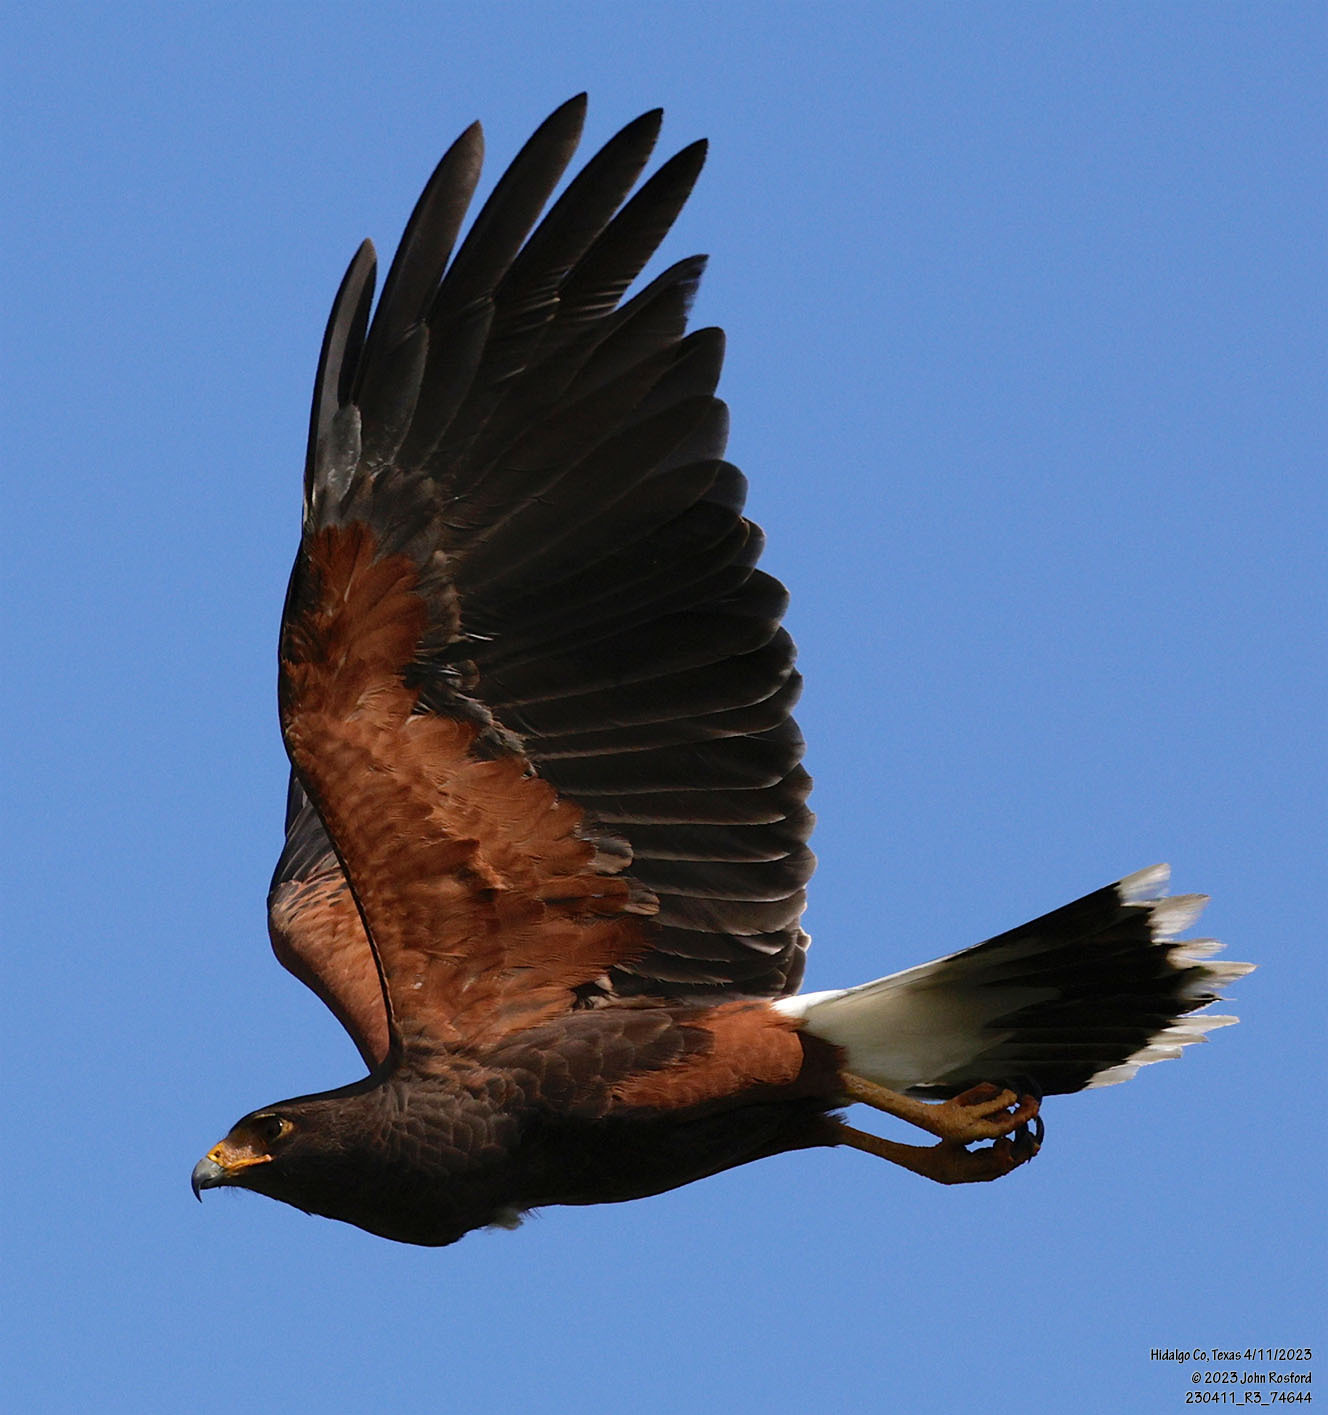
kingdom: Animalia
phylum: Chordata
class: Aves
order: Accipitriformes
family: Accipitridae
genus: Parabuteo
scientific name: Parabuteo unicinctus
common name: Harris's hawk
